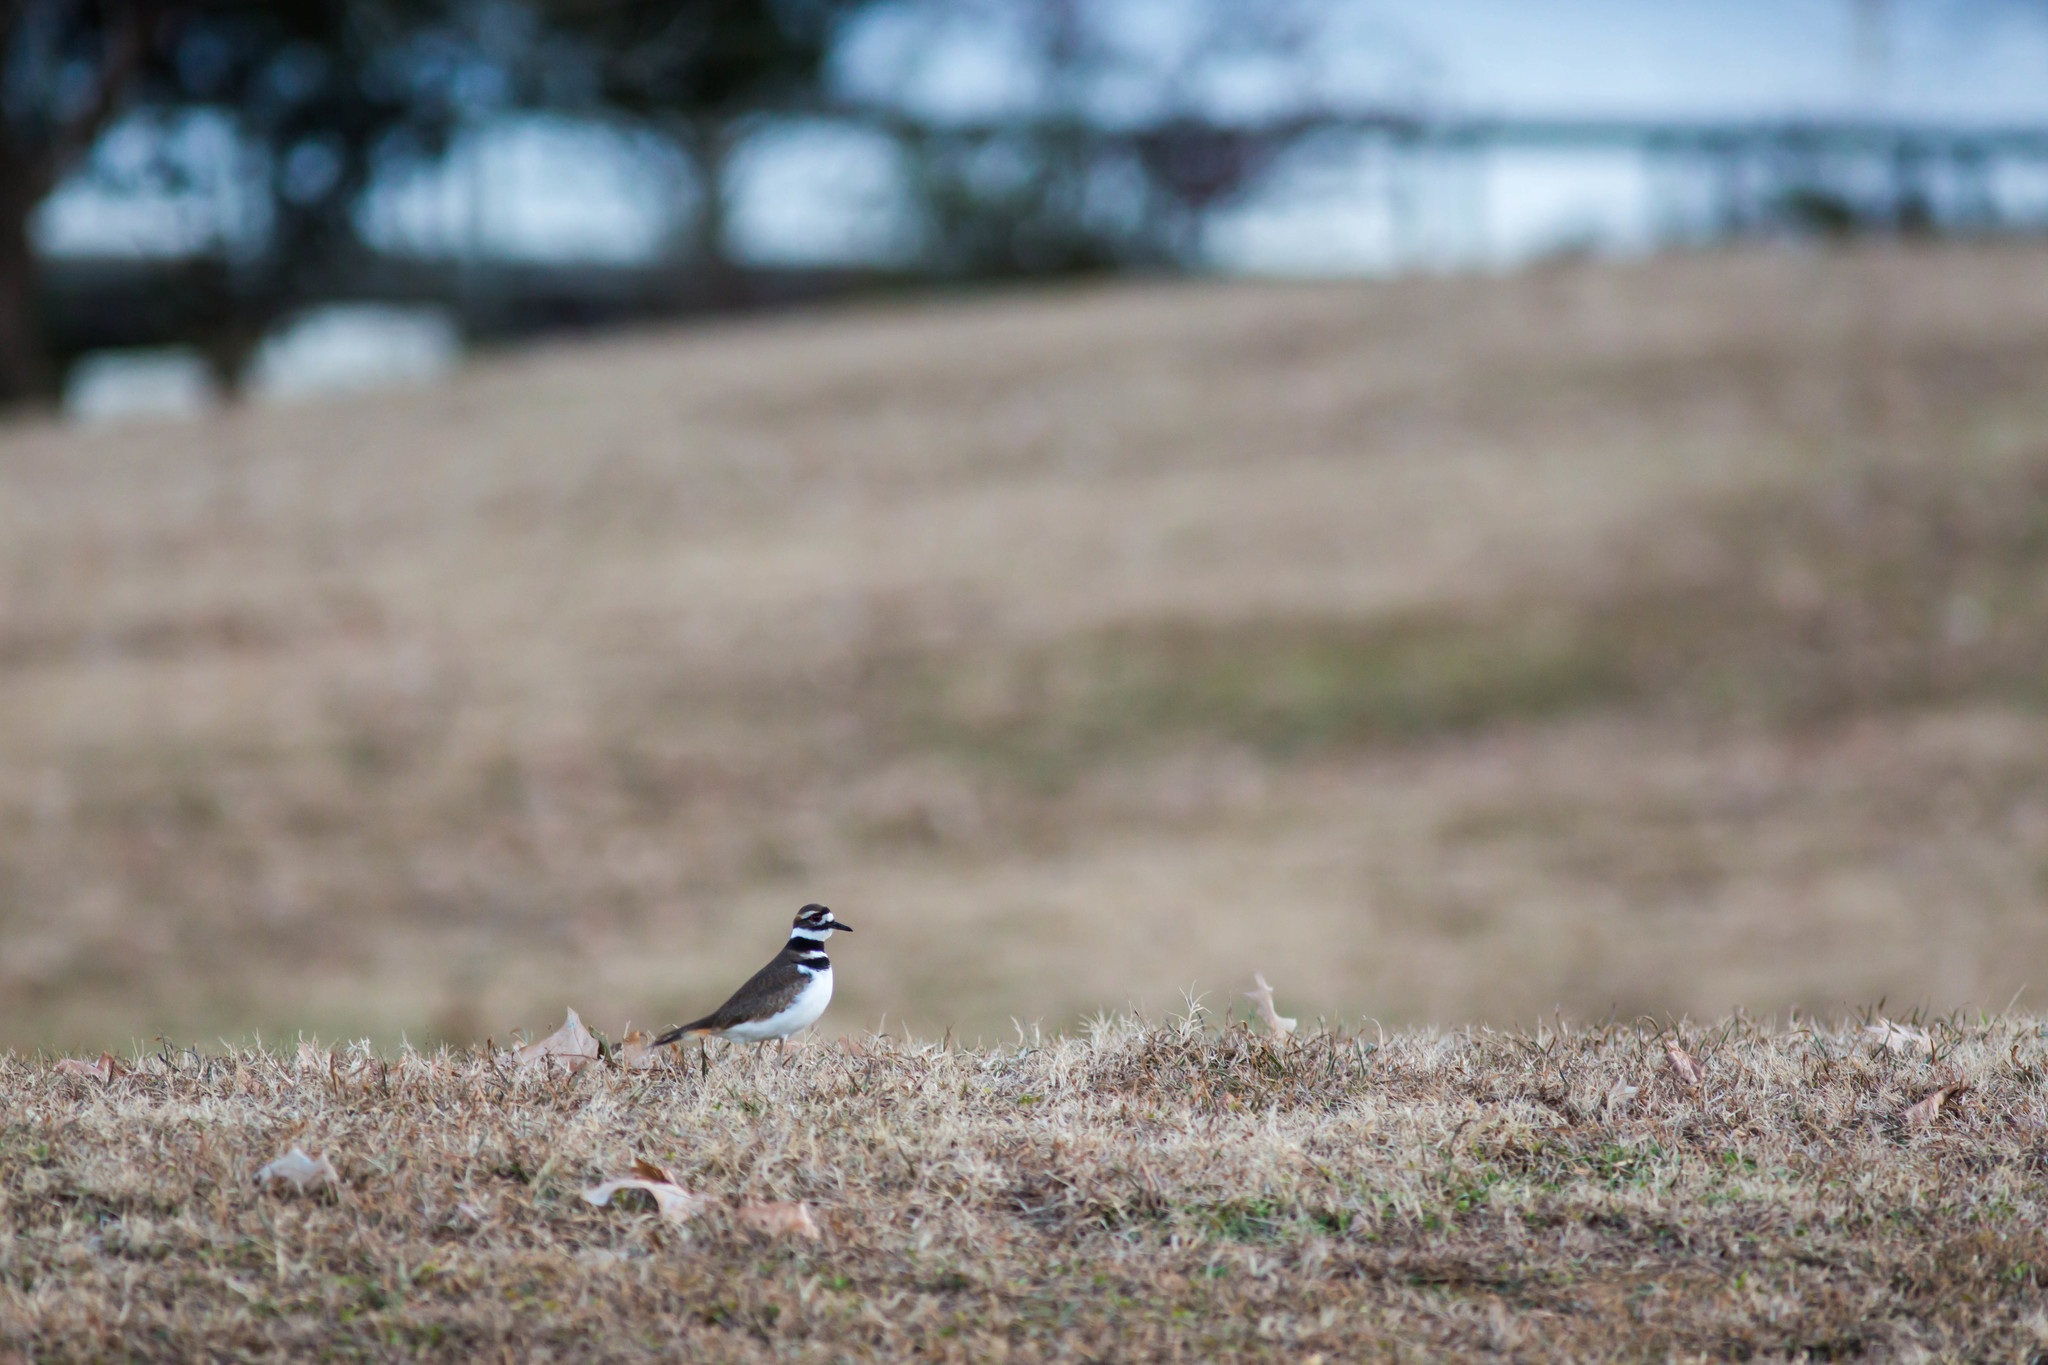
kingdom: Animalia
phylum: Chordata
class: Aves
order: Charadriiformes
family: Charadriidae
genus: Charadrius
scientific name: Charadrius vociferus
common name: Killdeer
